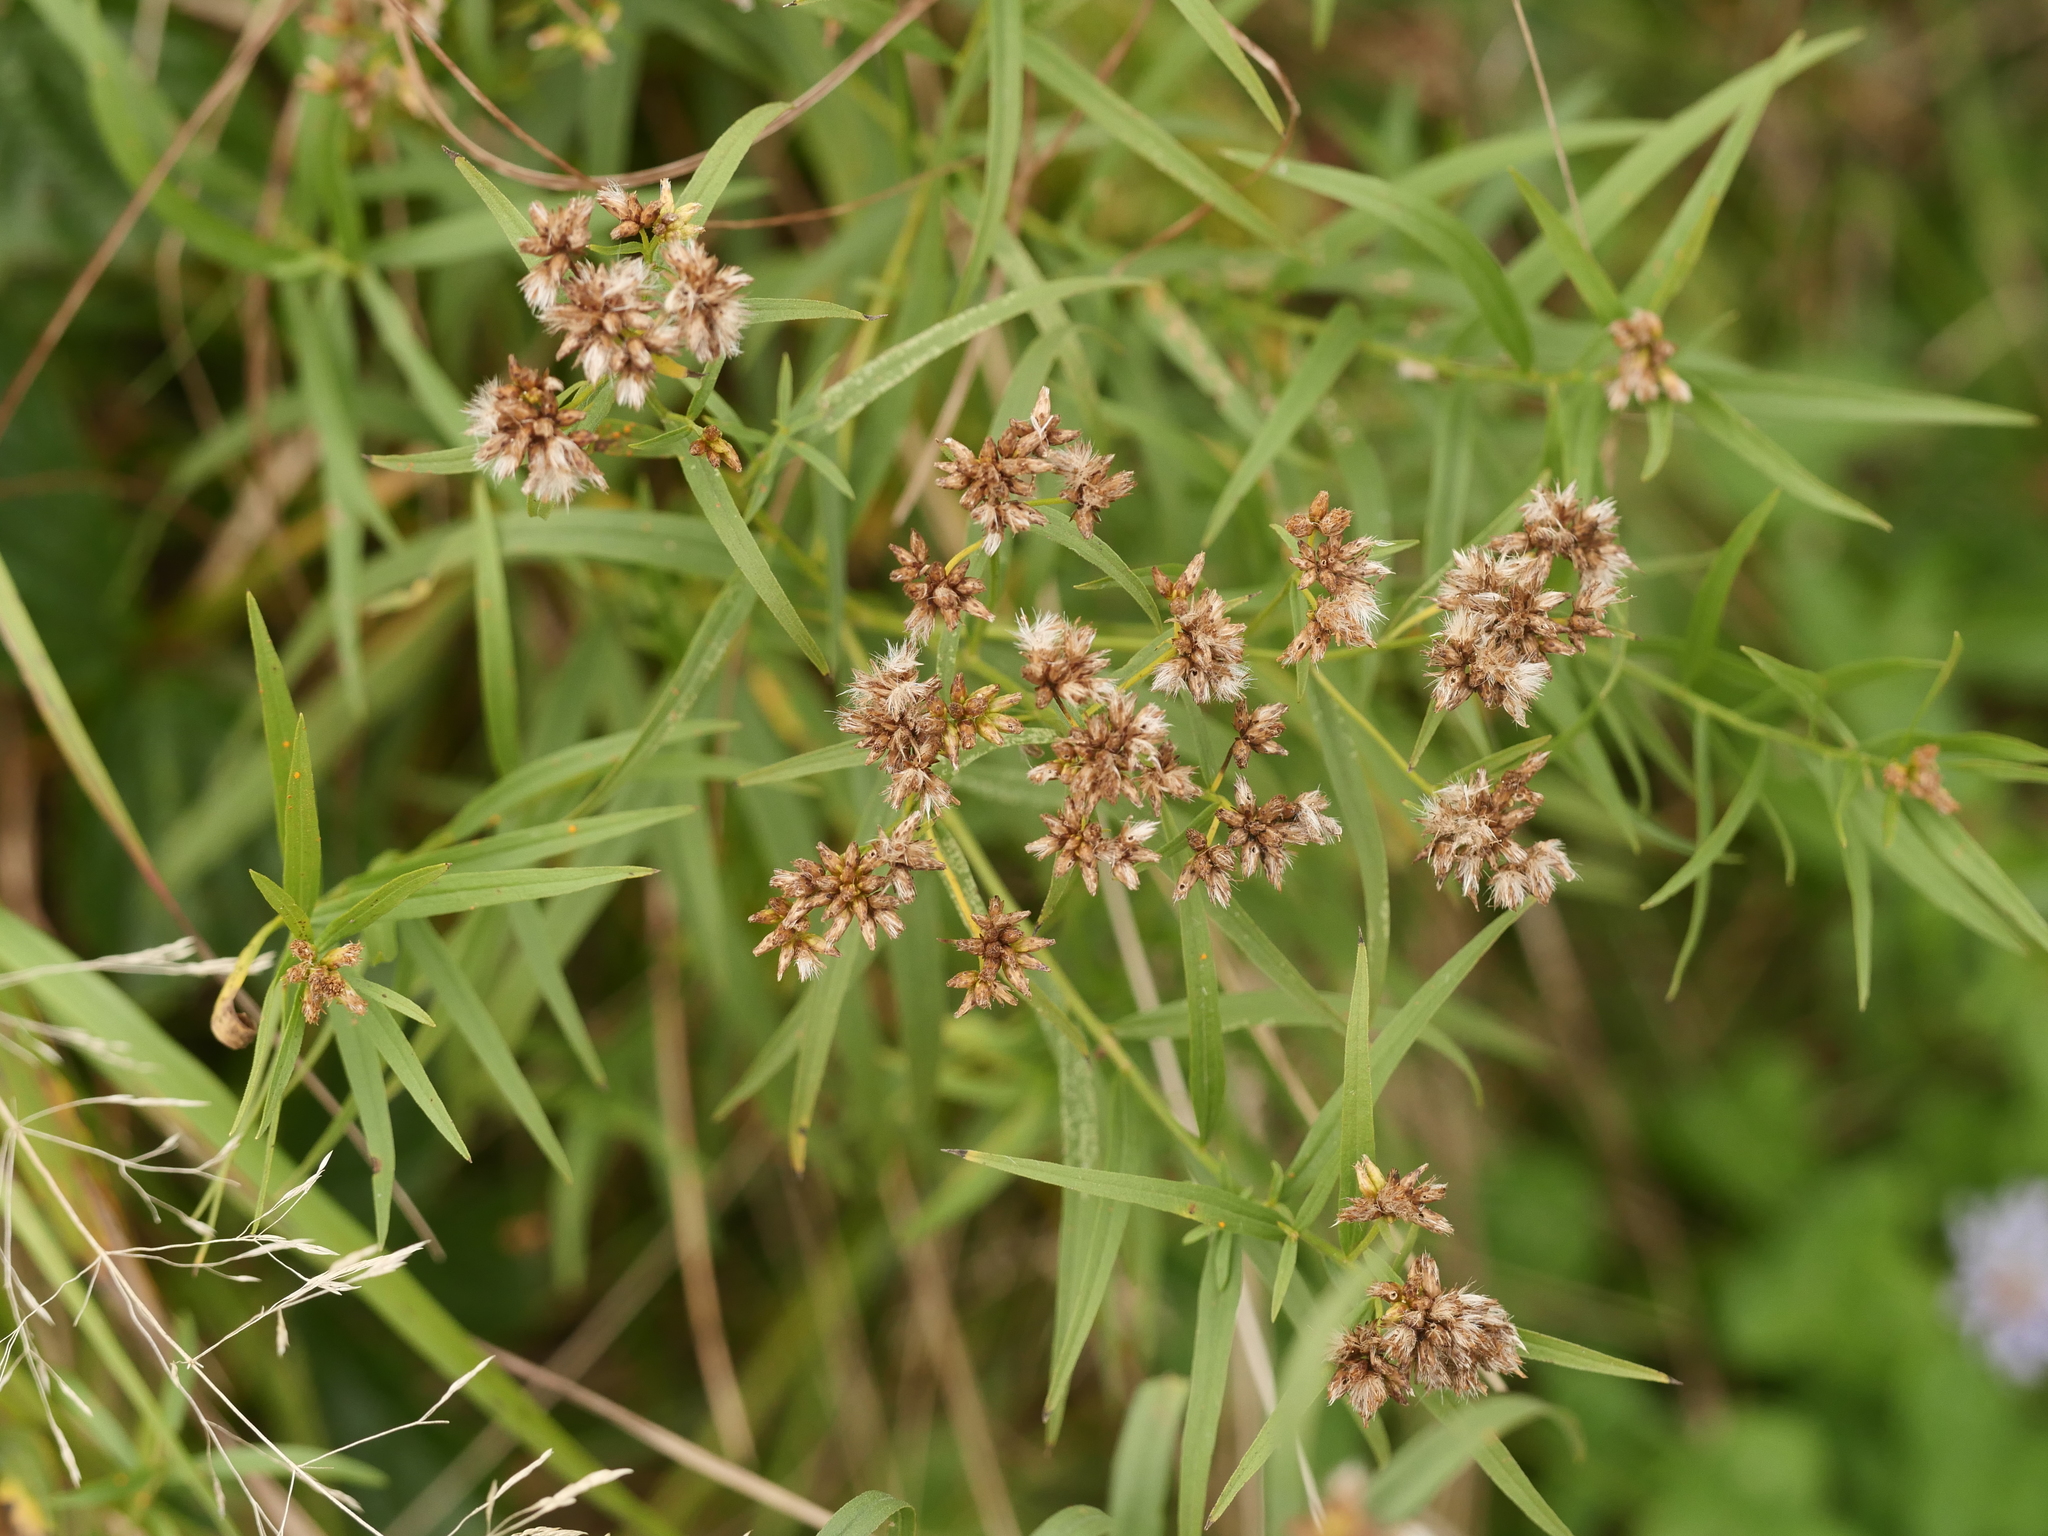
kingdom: Plantae
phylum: Tracheophyta
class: Magnoliopsida
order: Asterales
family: Asteraceae
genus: Euthamia
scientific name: Euthamia graminifolia
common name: Common goldentop
